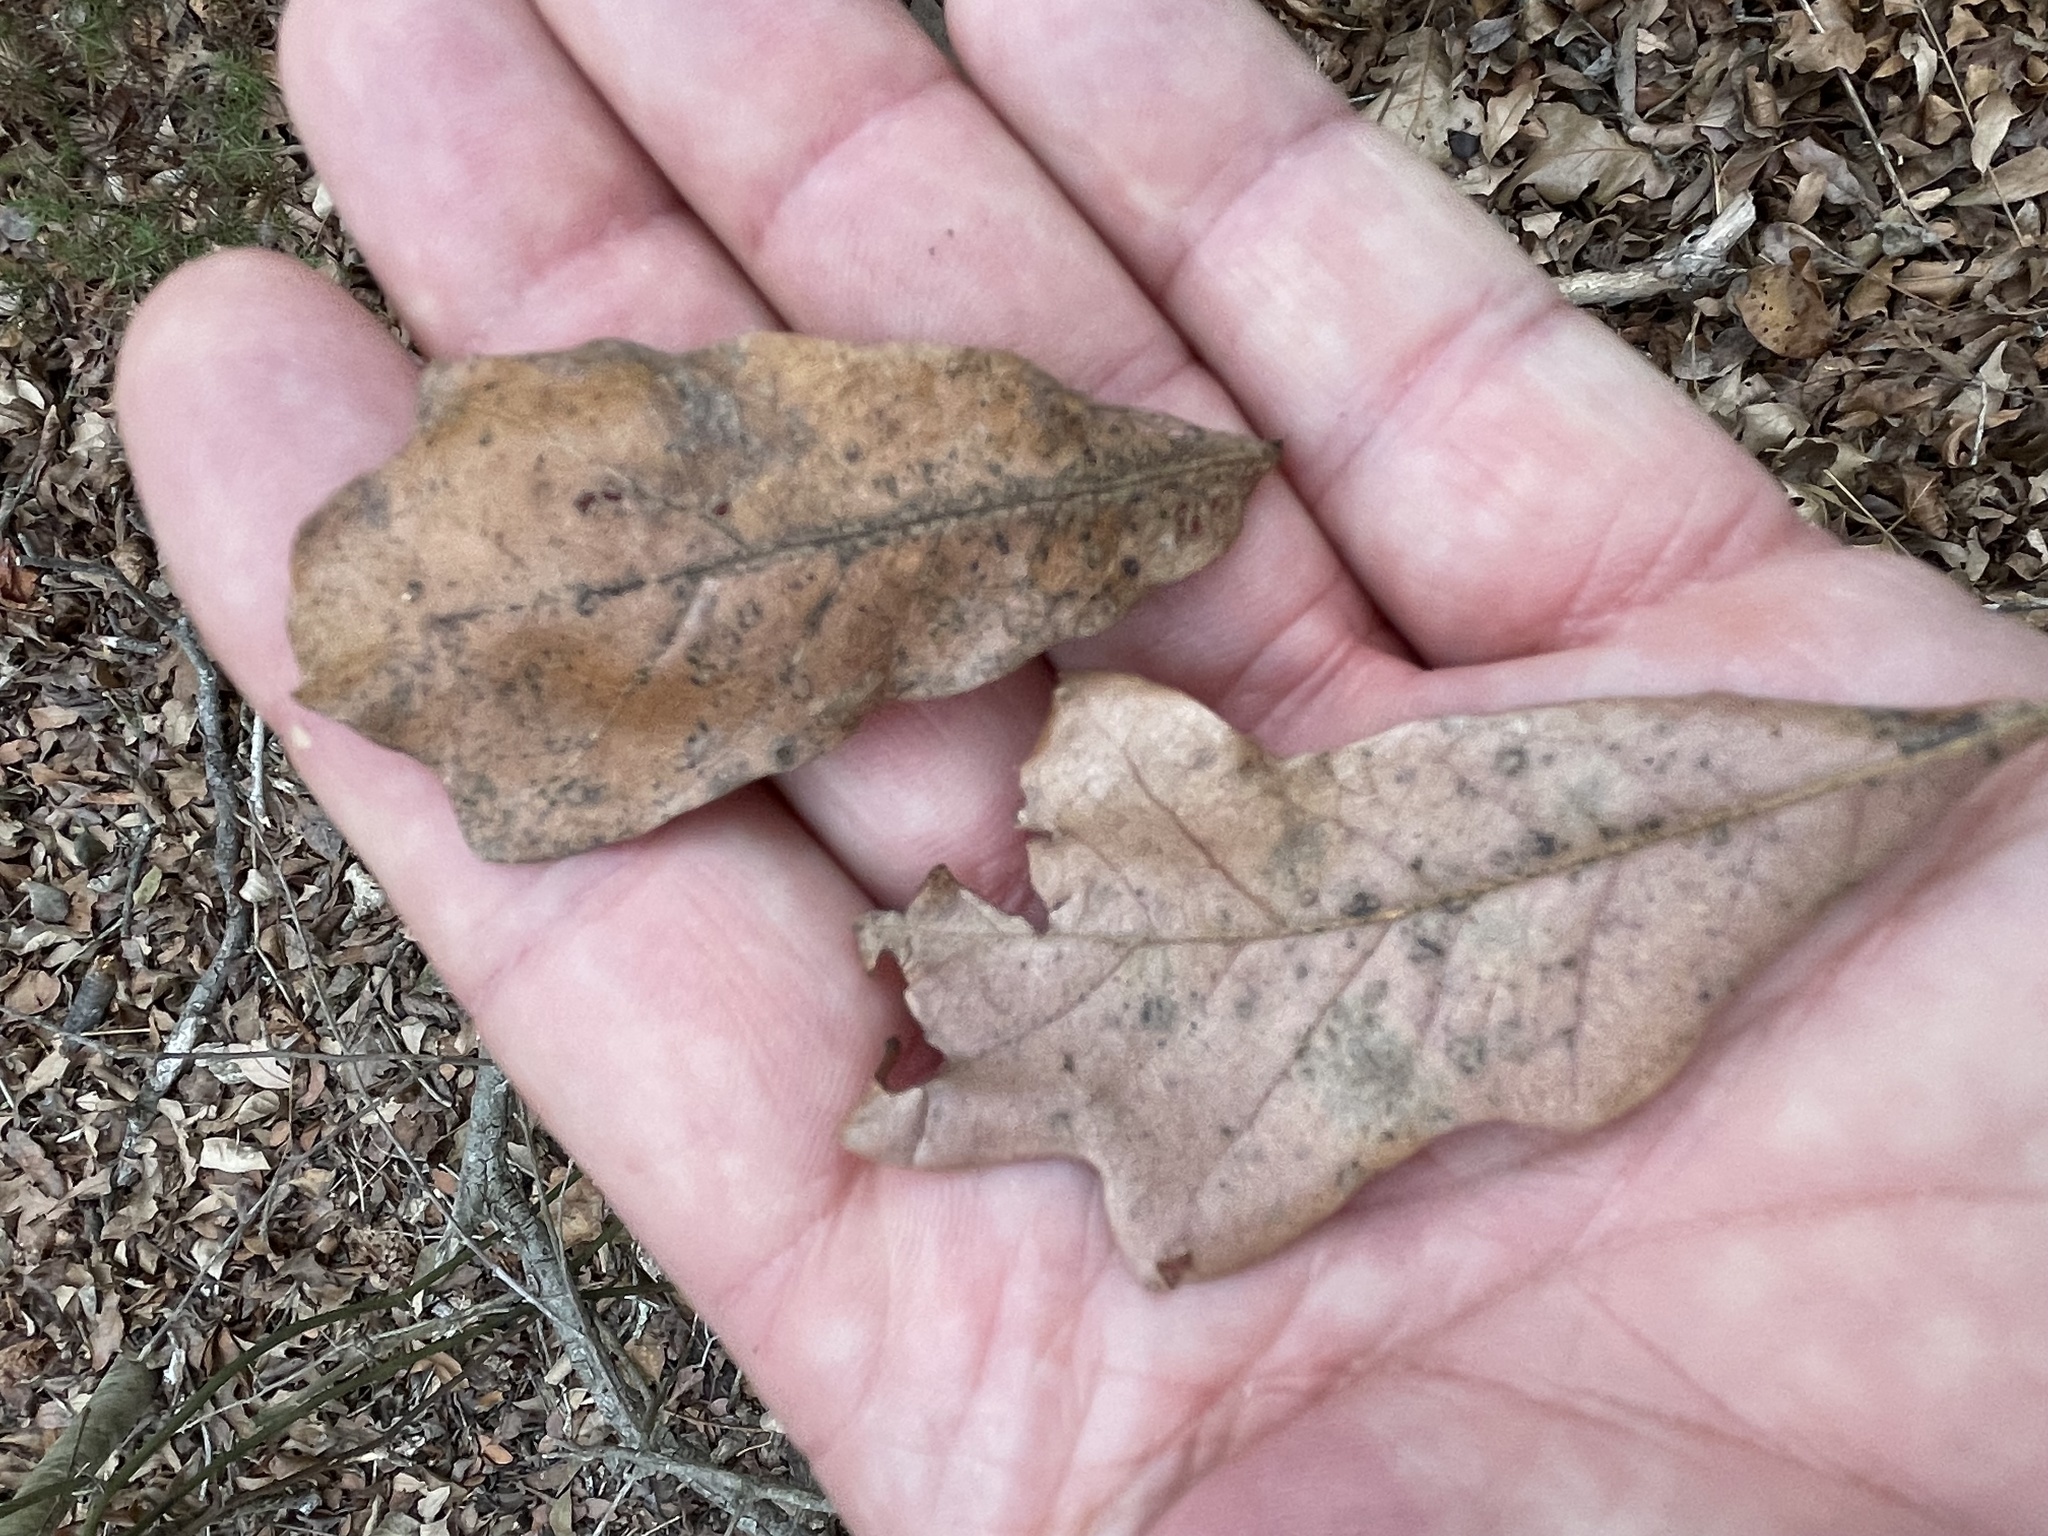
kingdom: Plantae
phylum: Tracheophyta
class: Magnoliopsida
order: Fagales
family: Fagaceae
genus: Quercus
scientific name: Quercus sinuata
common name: Durand oak
